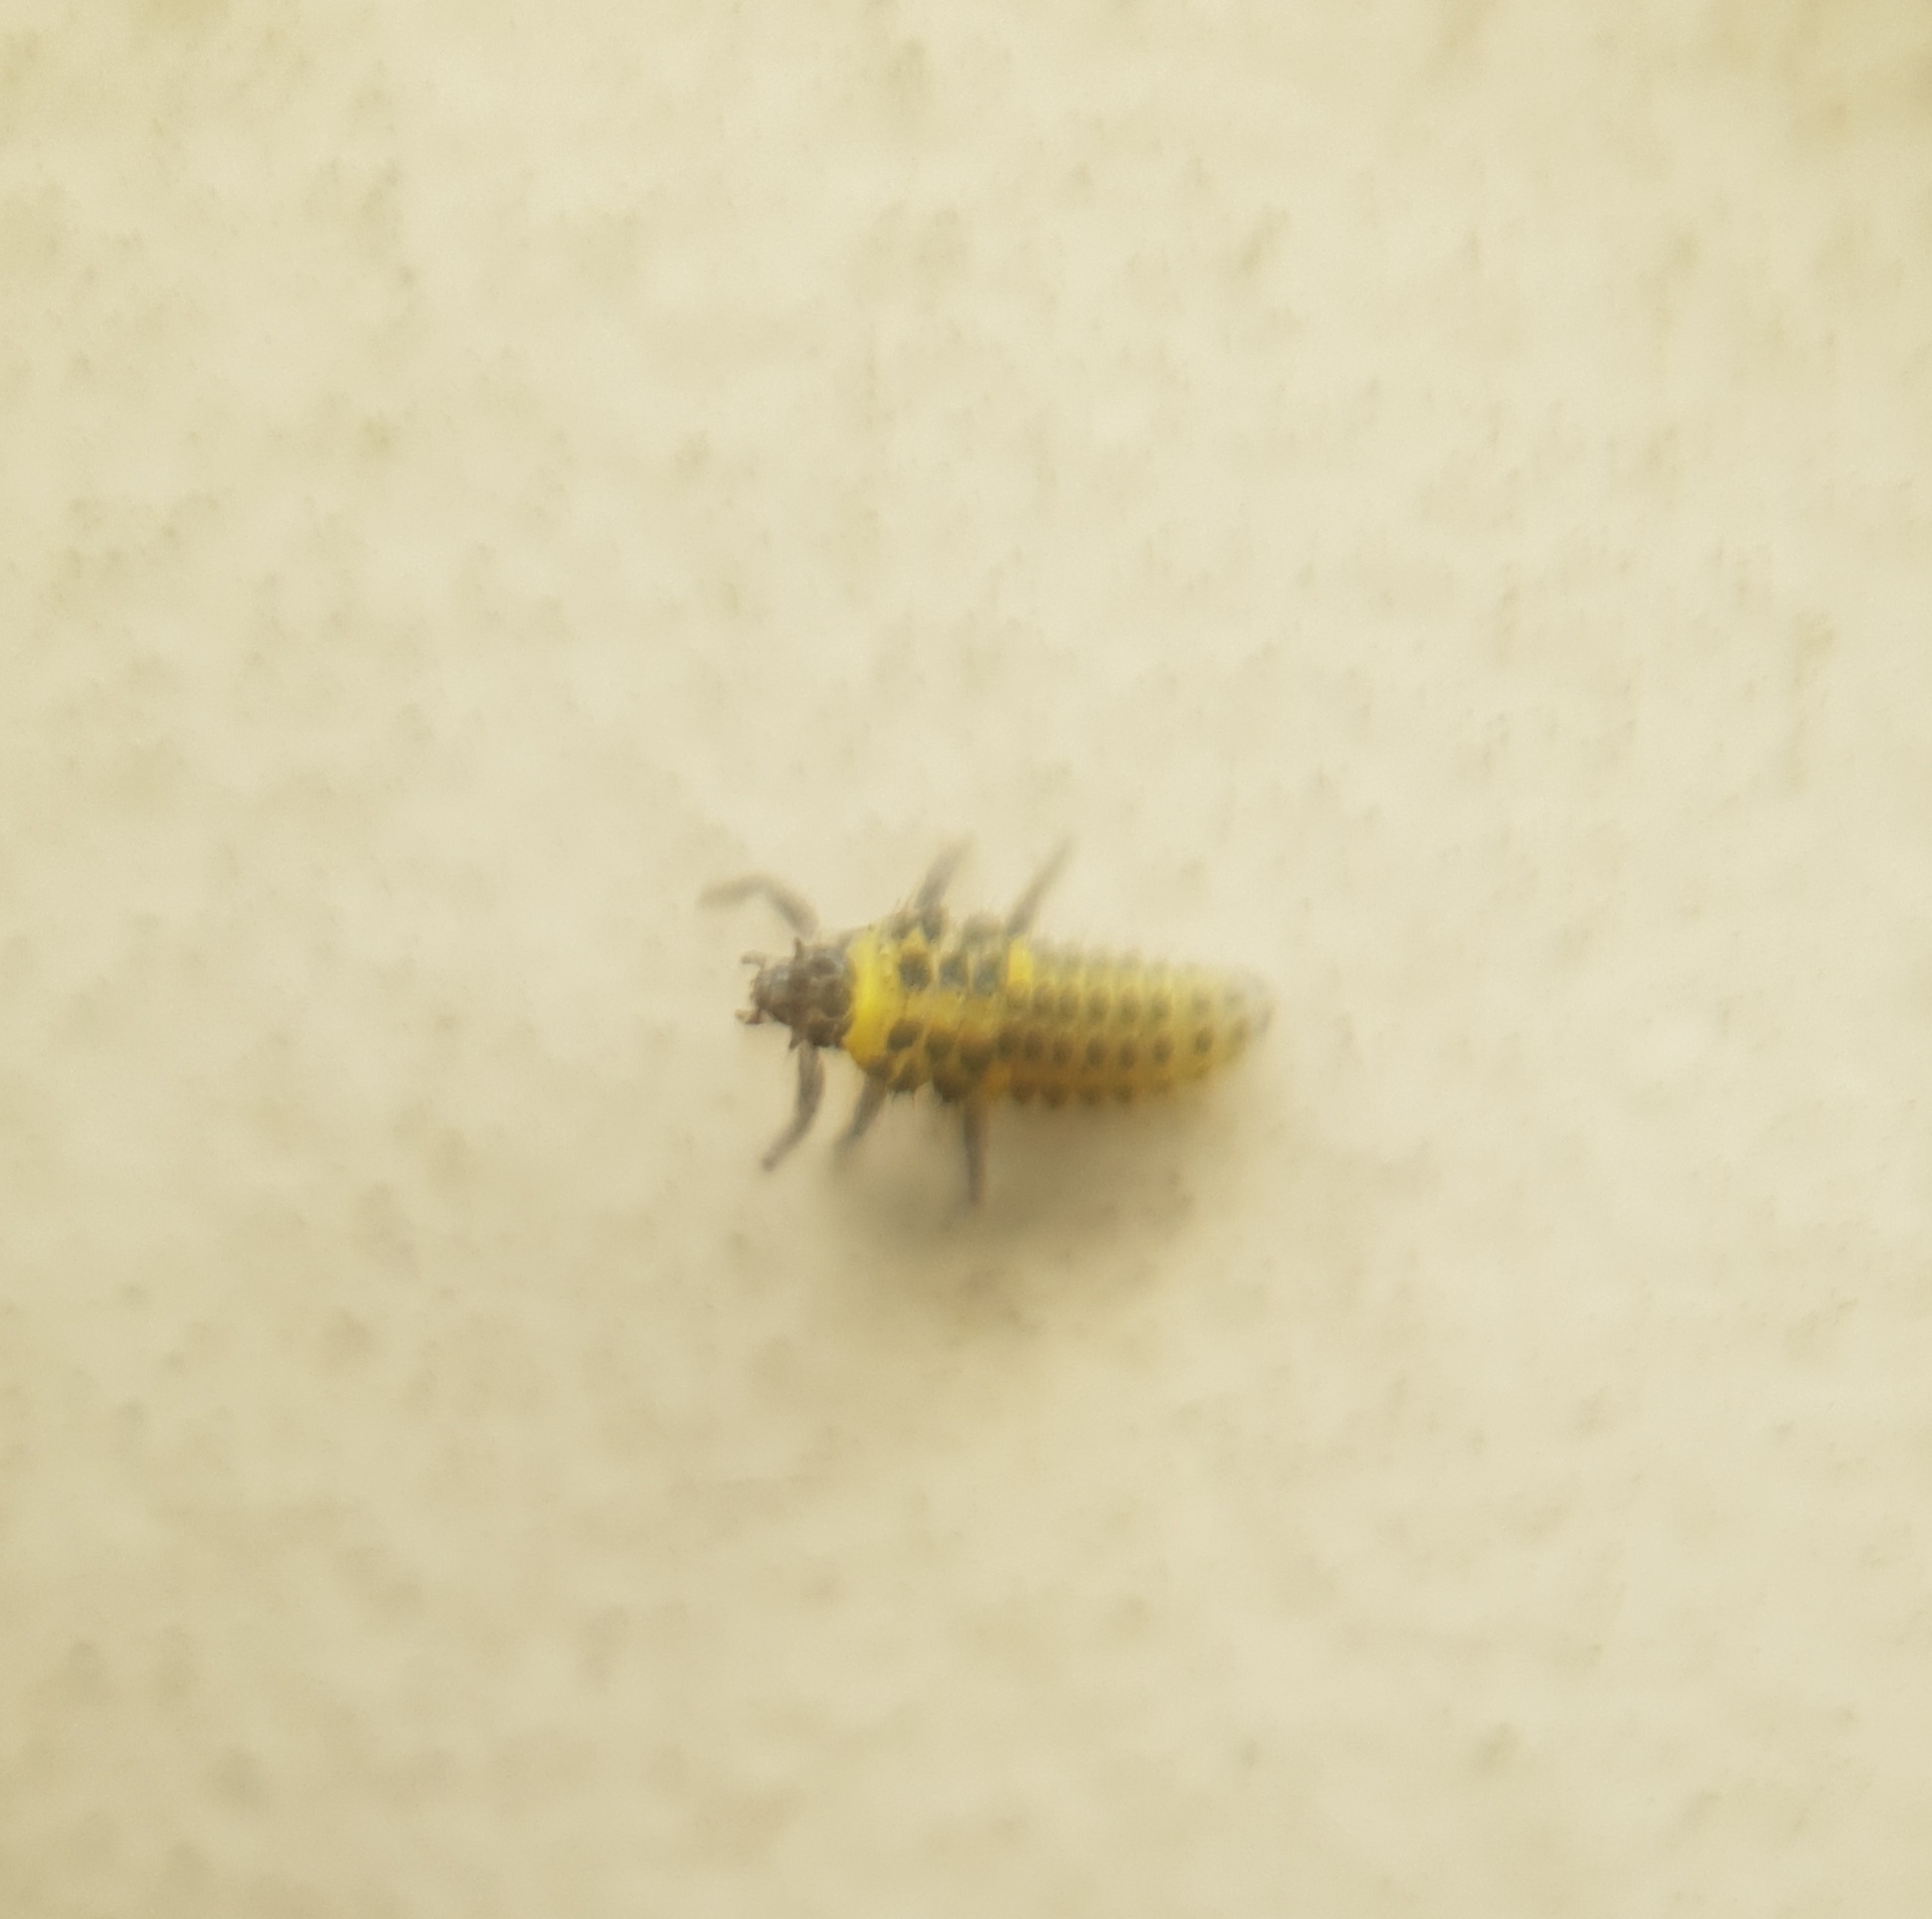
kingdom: Animalia
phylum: Arthropoda
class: Insecta
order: Coleoptera
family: Coccinellidae
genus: Psyllobora
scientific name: Psyllobora vigintiduopunctata
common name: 22-spot ladybird
